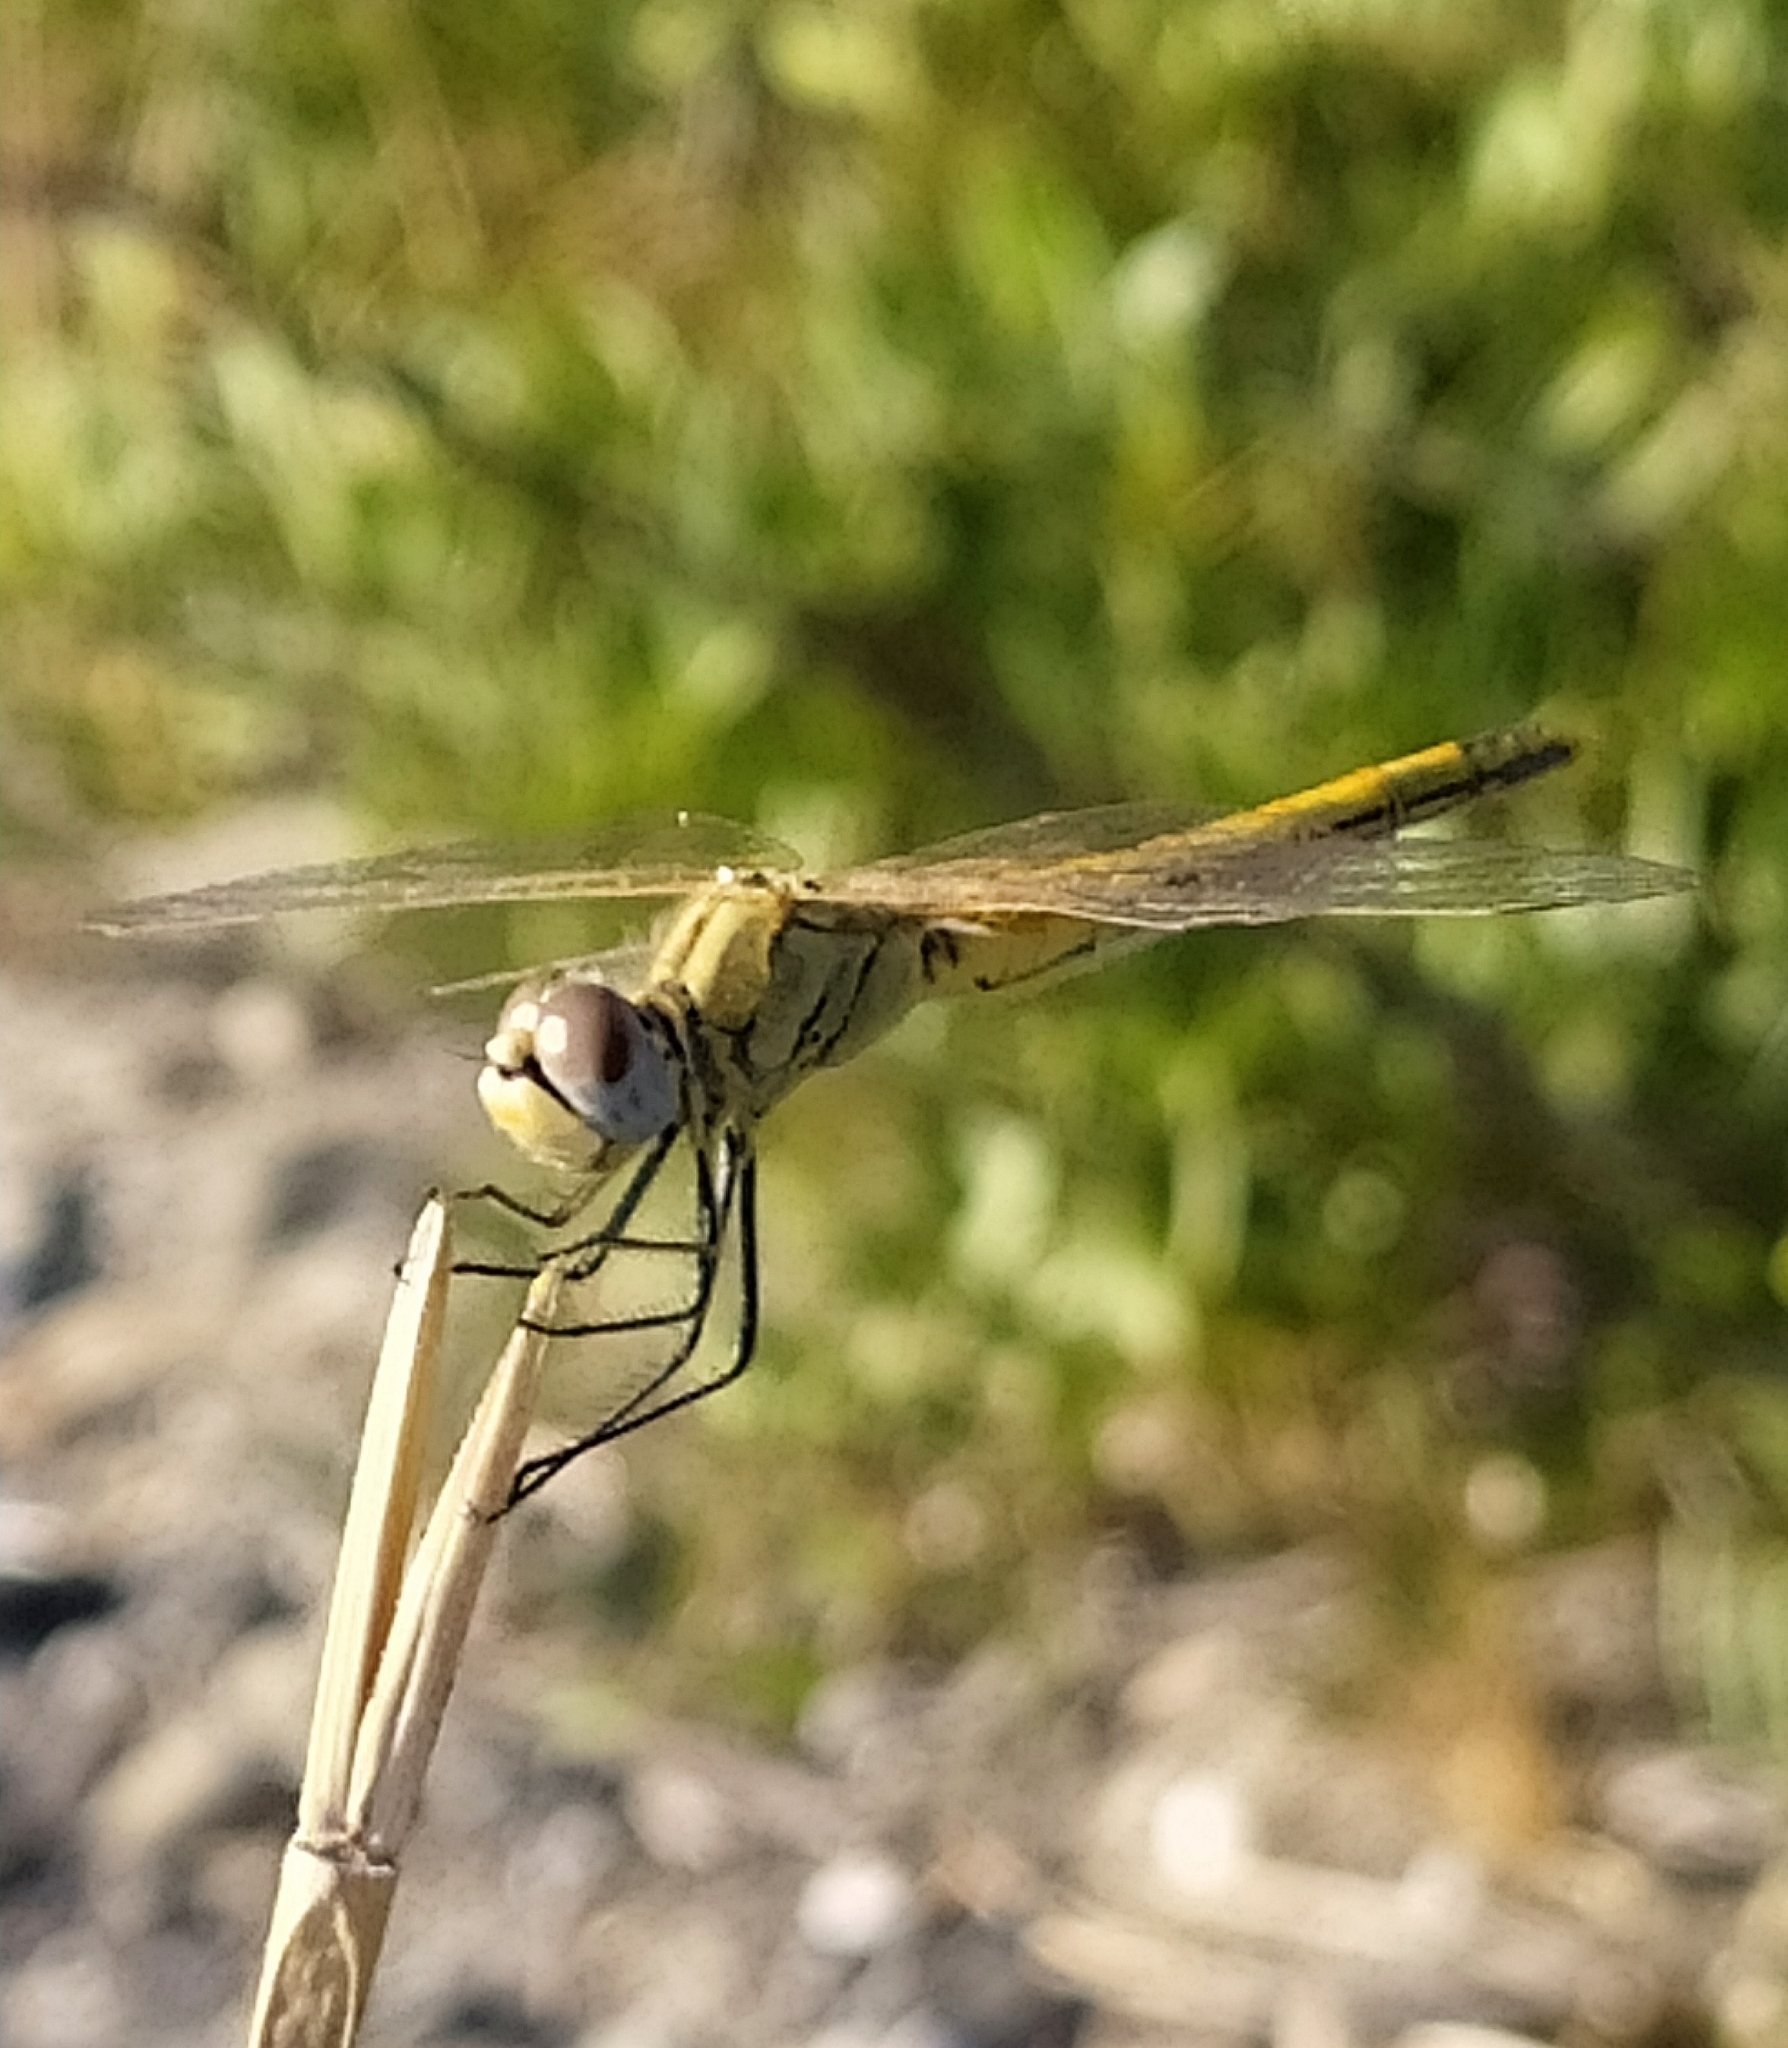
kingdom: Animalia
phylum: Arthropoda
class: Insecta
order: Odonata
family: Libellulidae
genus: Sympetrum
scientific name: Sympetrum fonscolombii
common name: Red-veined darter
